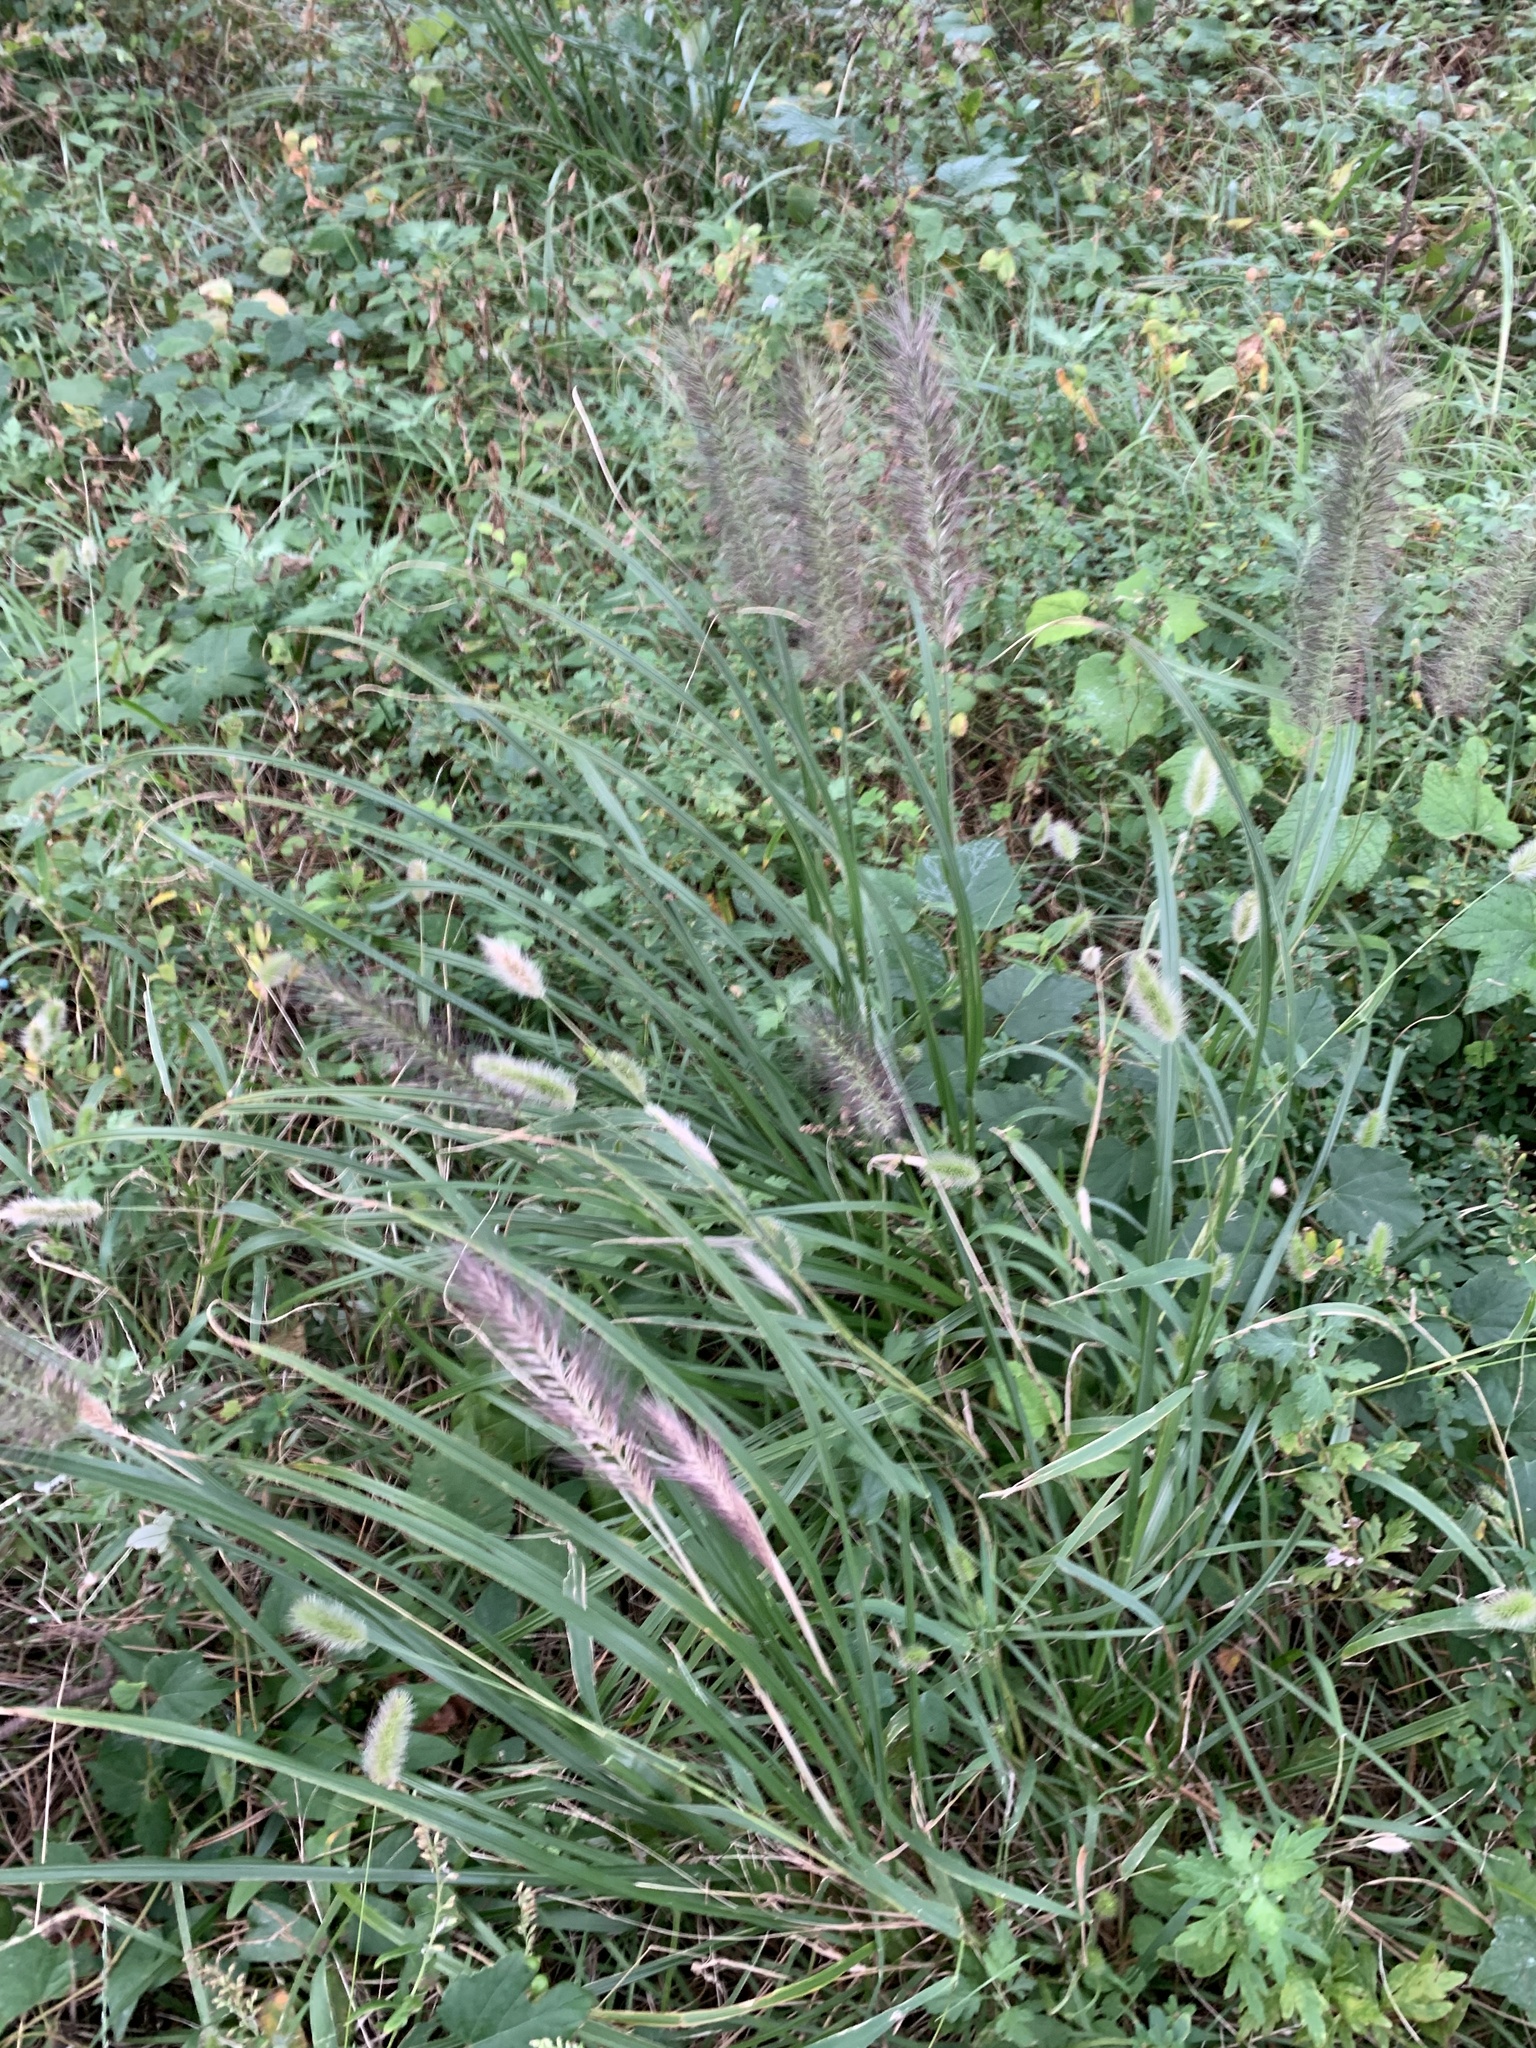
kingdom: Plantae
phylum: Tracheophyta
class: Liliopsida
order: Poales
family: Poaceae
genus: Cenchrus
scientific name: Cenchrus alopecuroides
